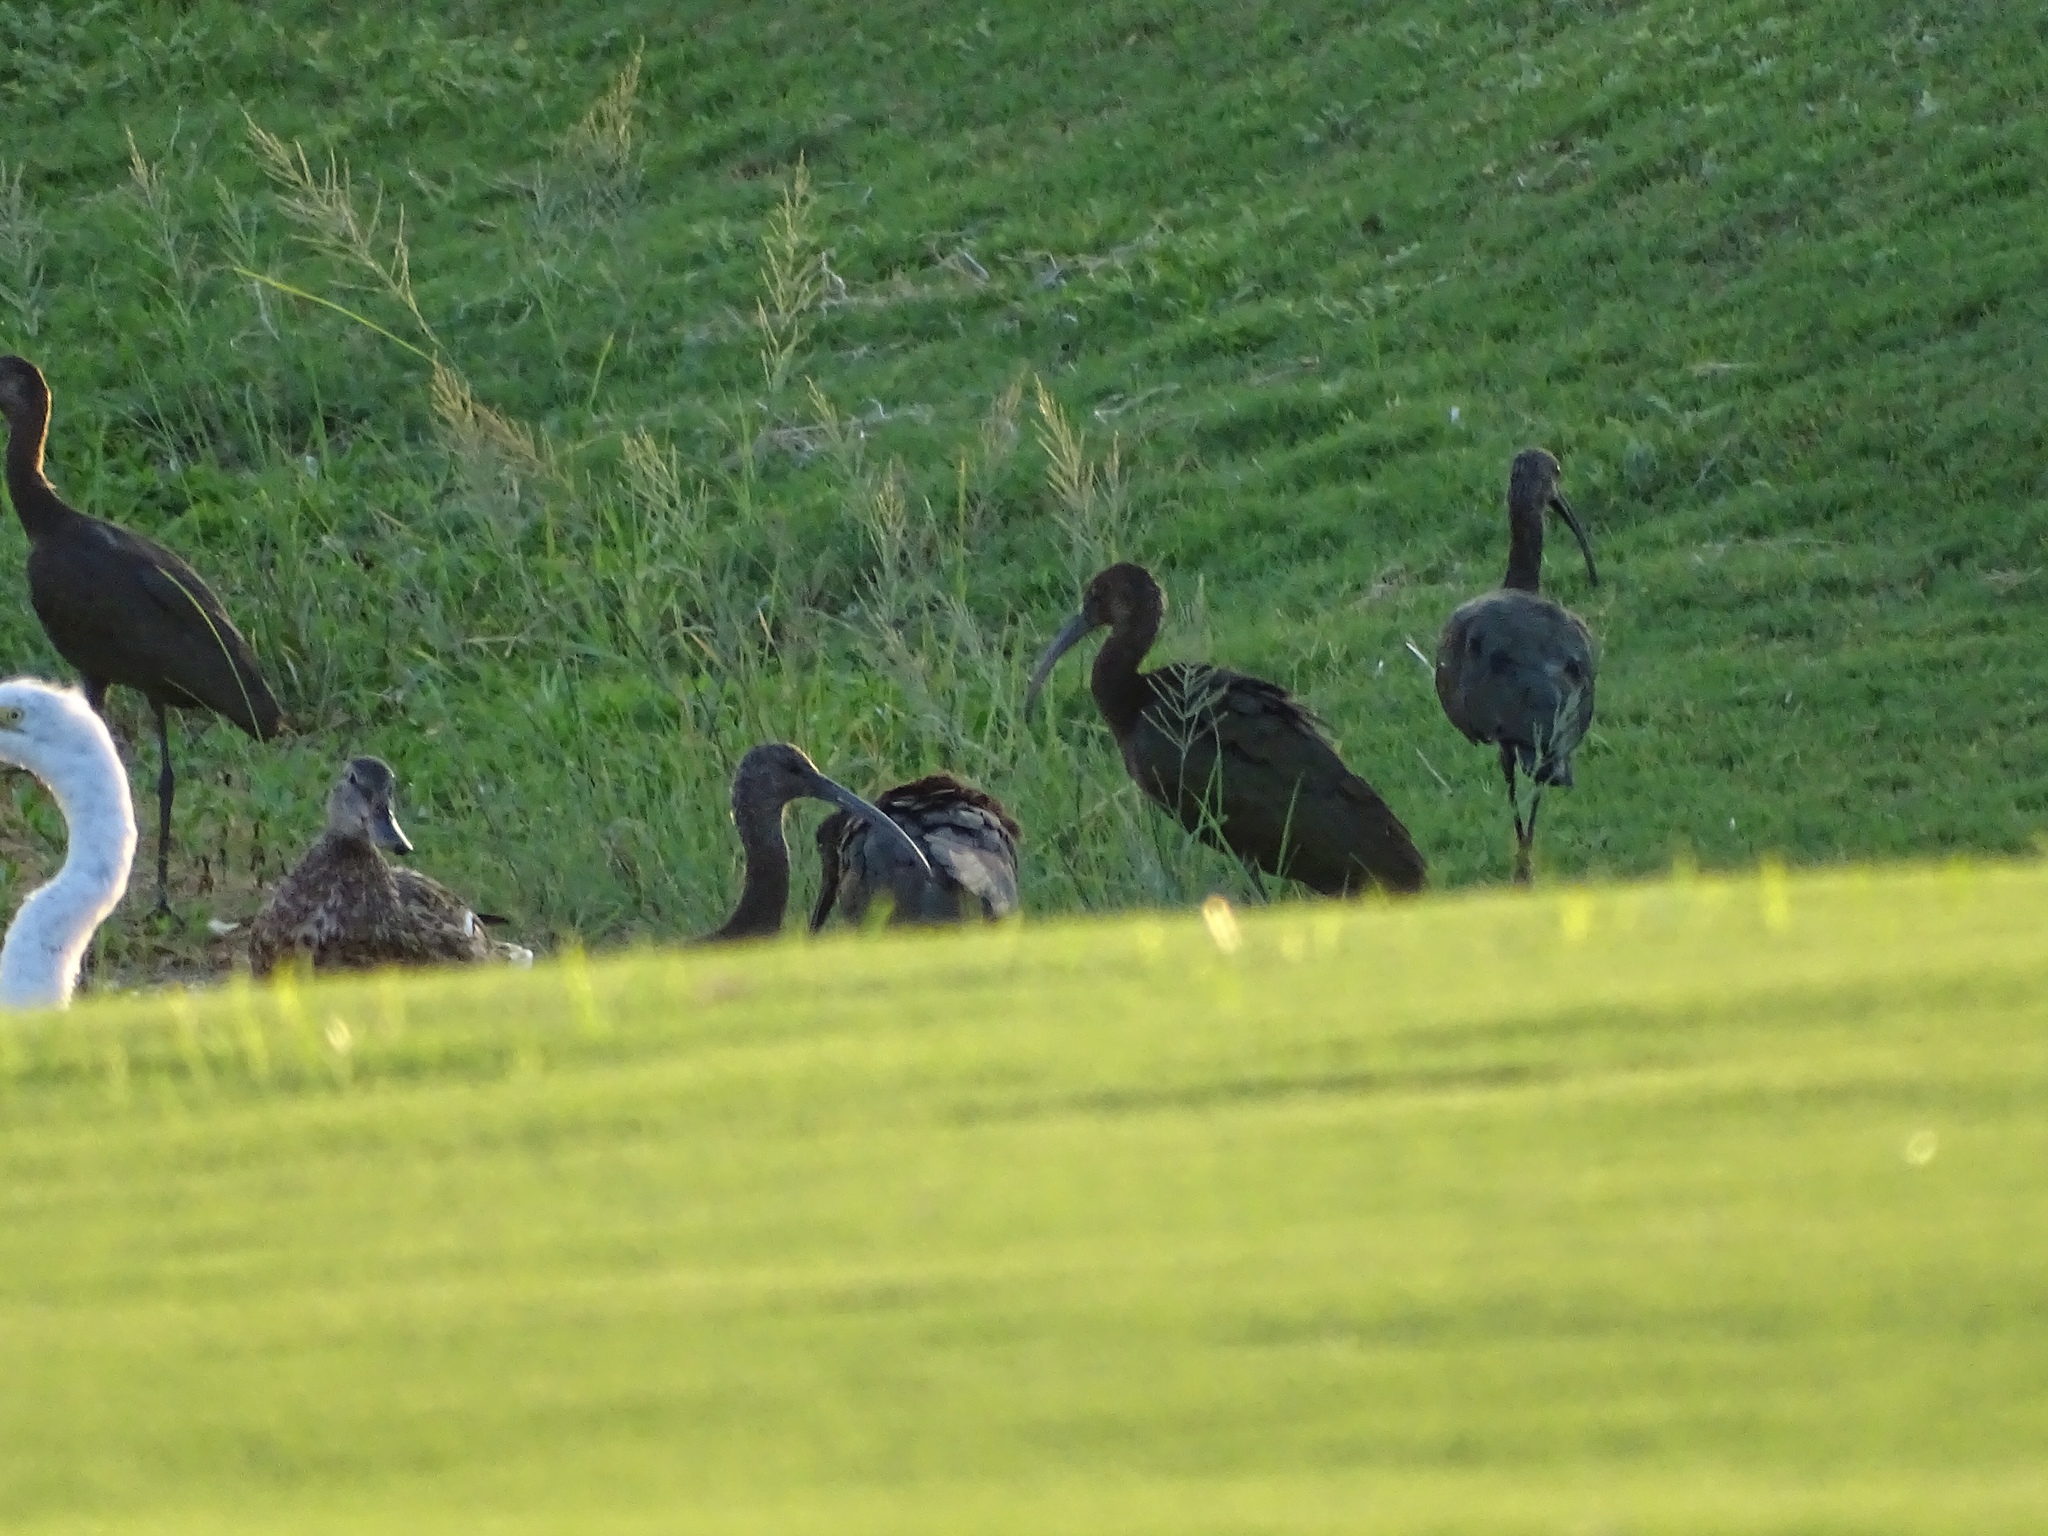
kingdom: Animalia
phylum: Chordata
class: Aves
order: Pelecaniformes
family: Threskiornithidae
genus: Plegadis
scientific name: Plegadis chihi
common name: White-faced ibis
